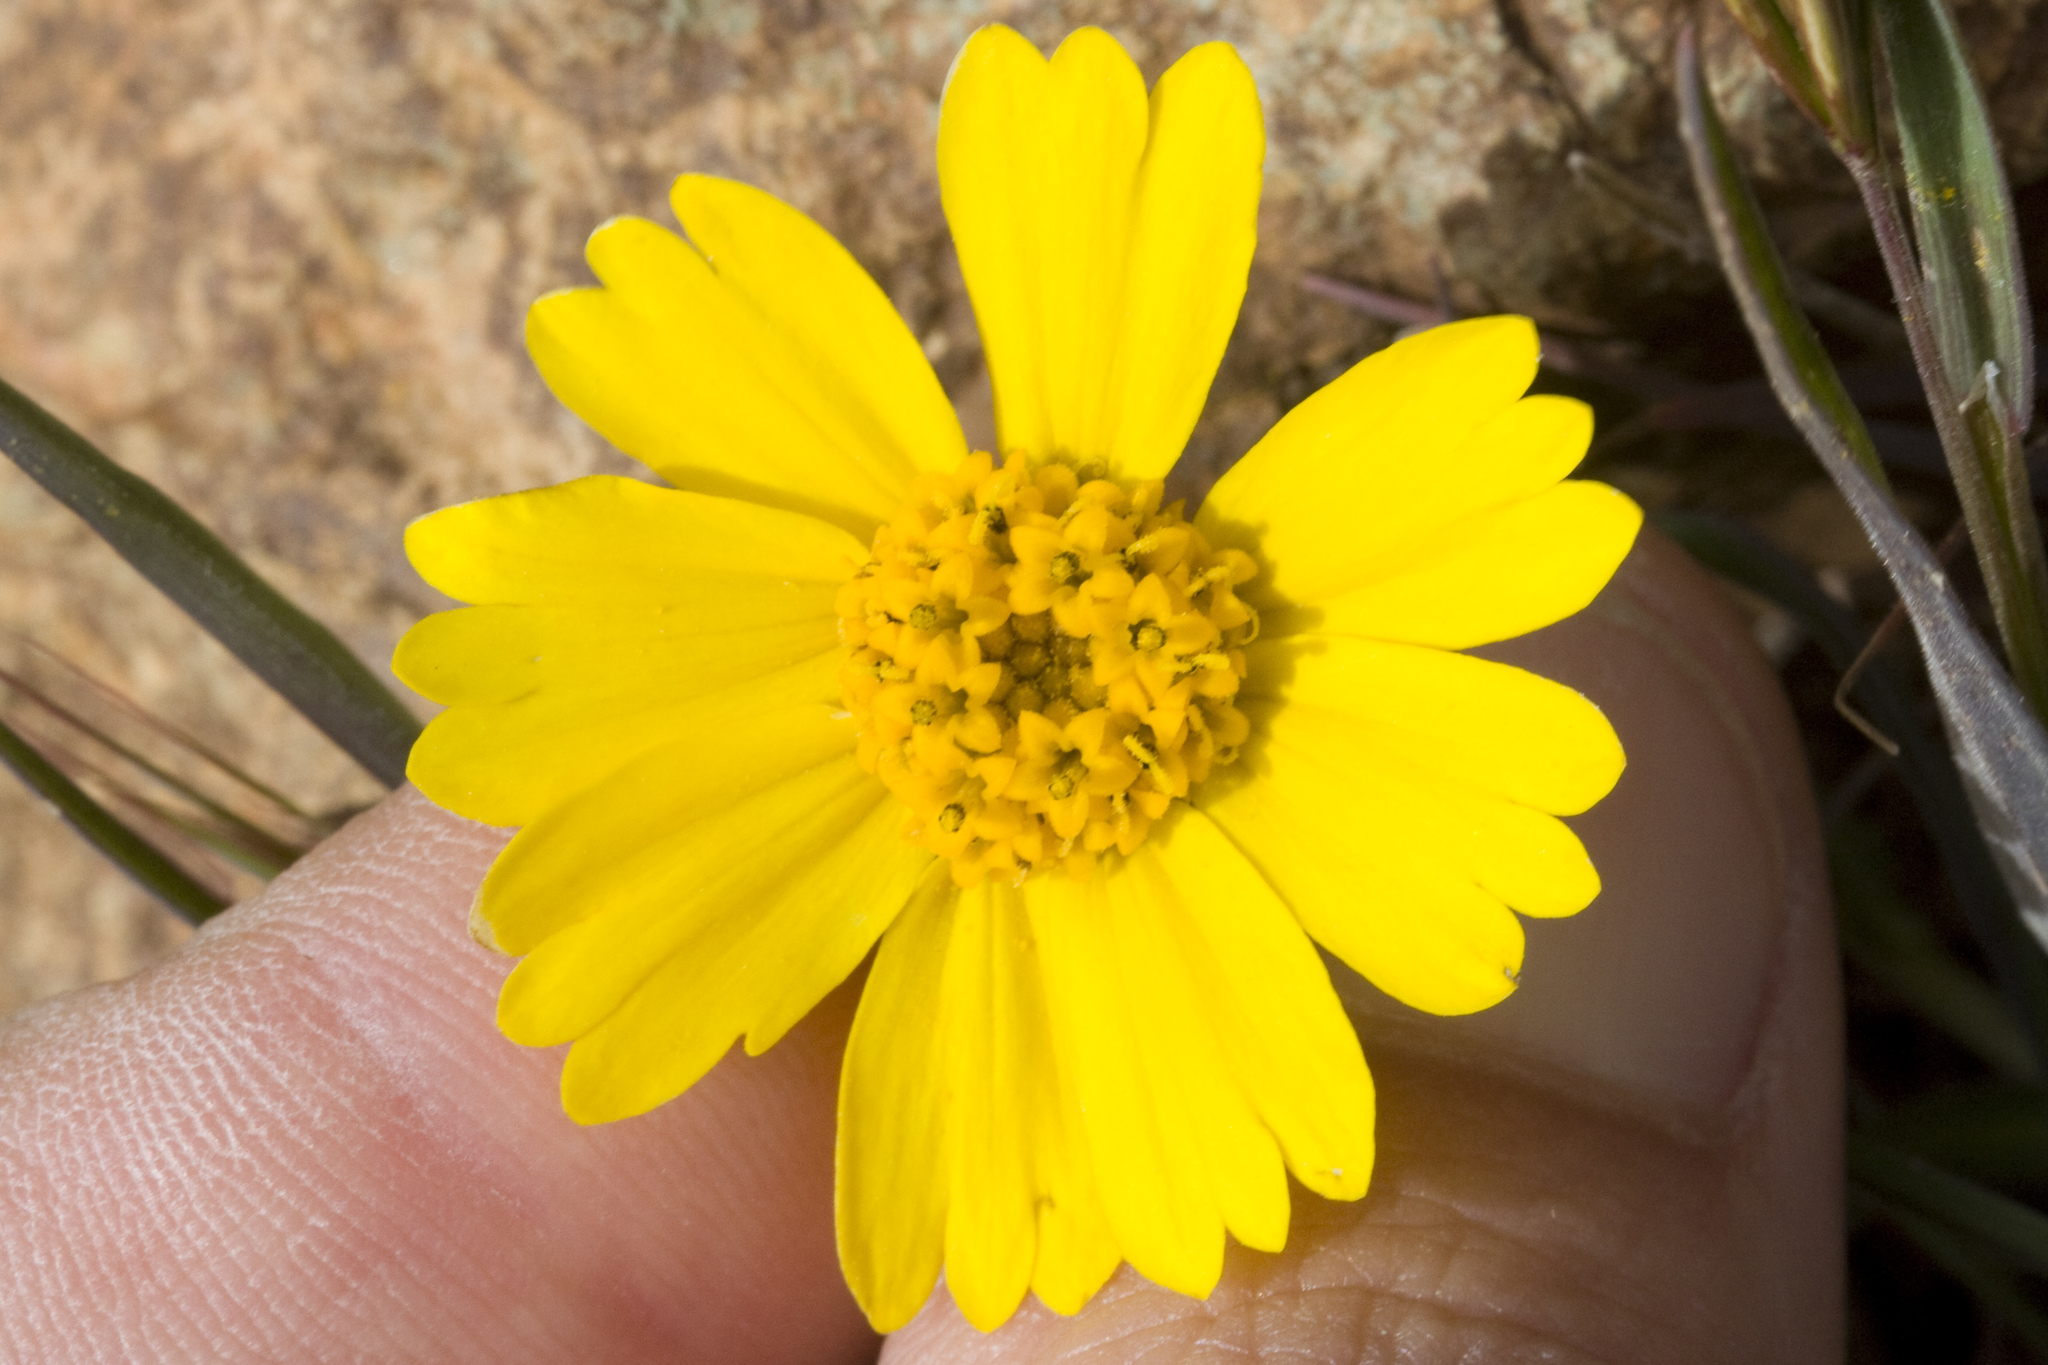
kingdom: Plantae
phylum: Tracheophyta
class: Magnoliopsida
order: Asterales
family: Asteraceae
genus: Layia
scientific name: Layia platyglossa
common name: Tidy-tips
